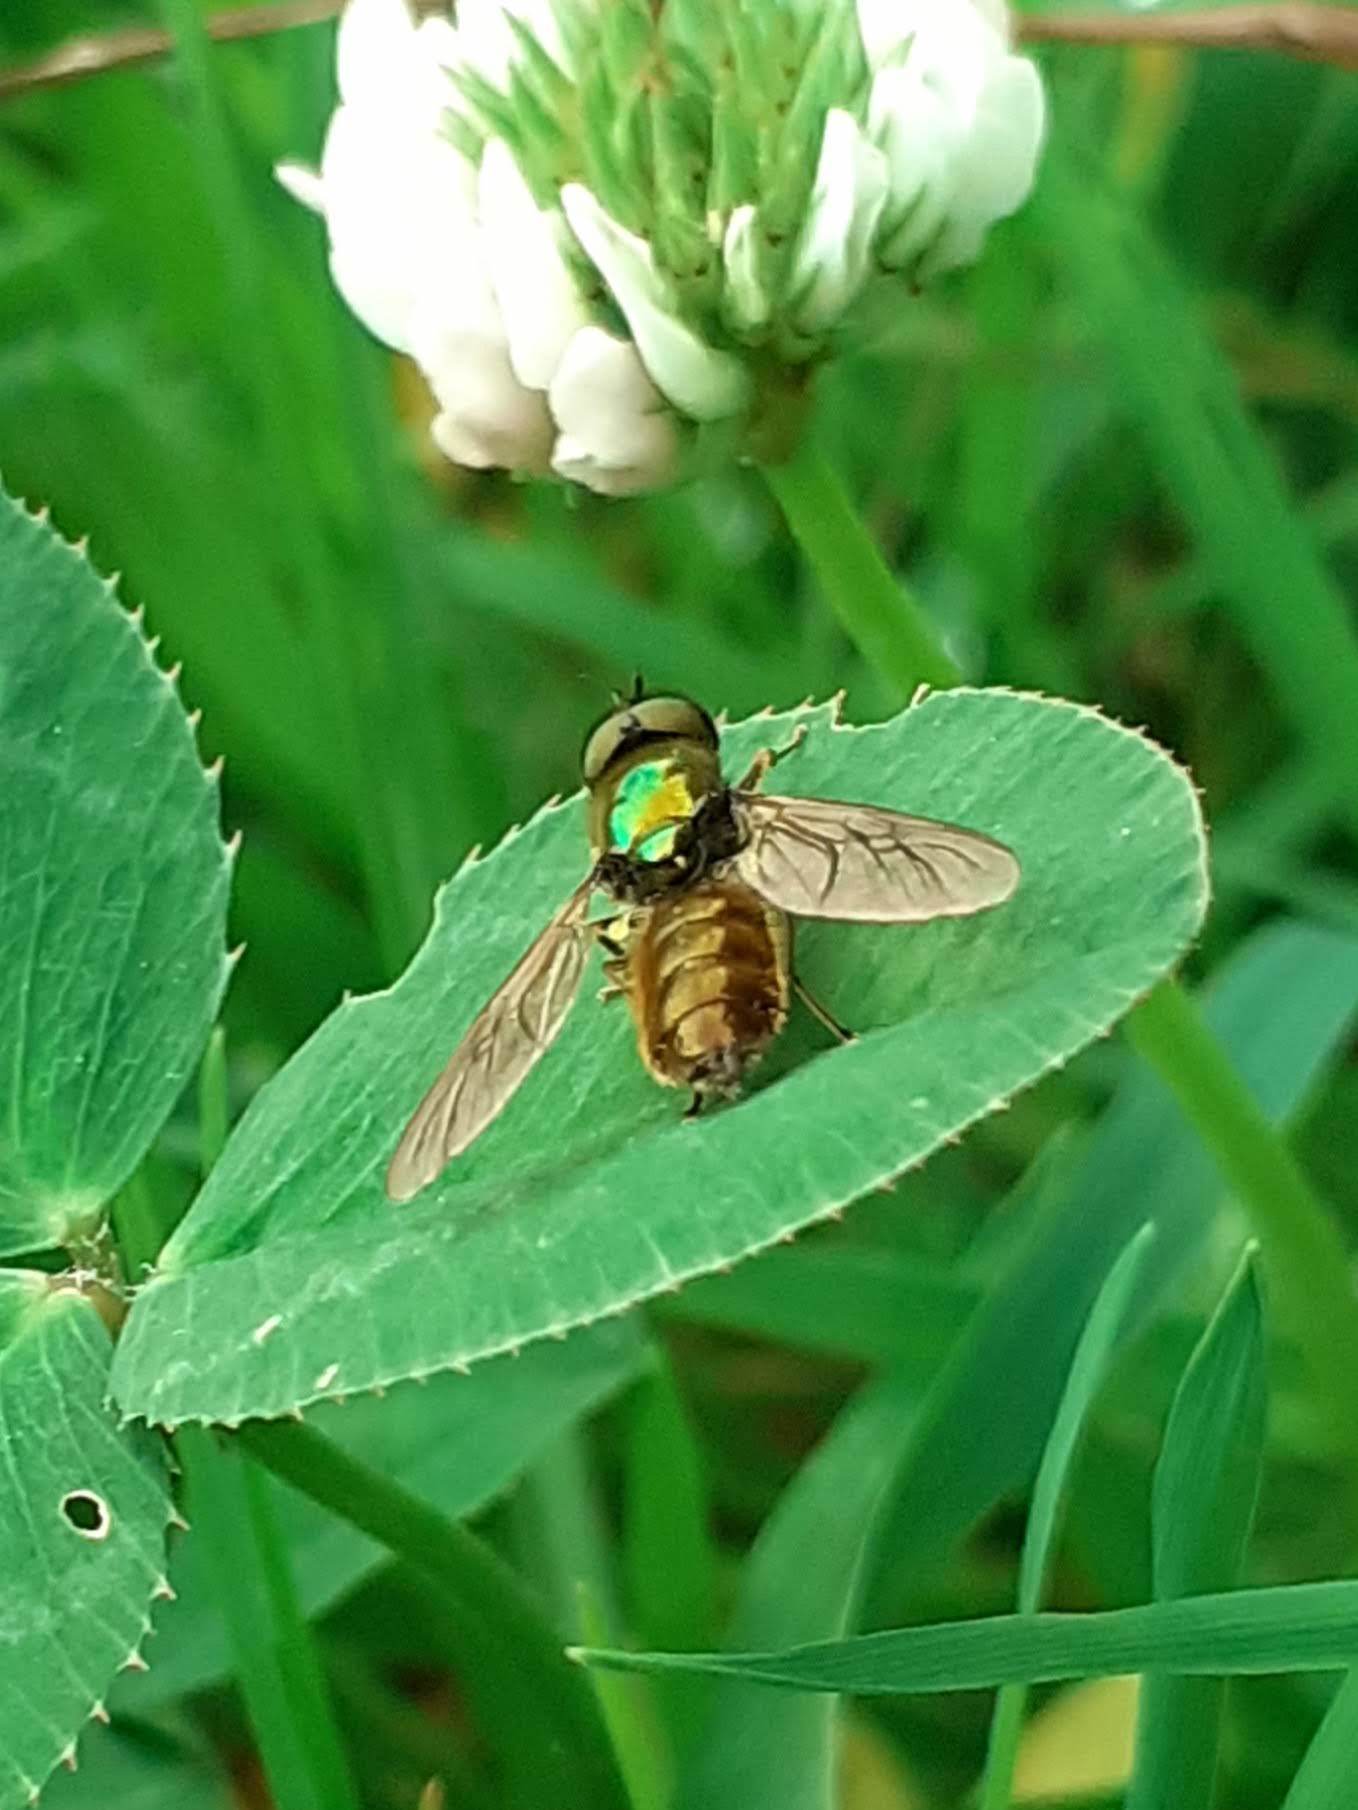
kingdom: Animalia
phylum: Arthropoda
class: Insecta
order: Diptera
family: Stratiomyidae
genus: Chloromyia
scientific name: Chloromyia formosa
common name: Soldier fly
